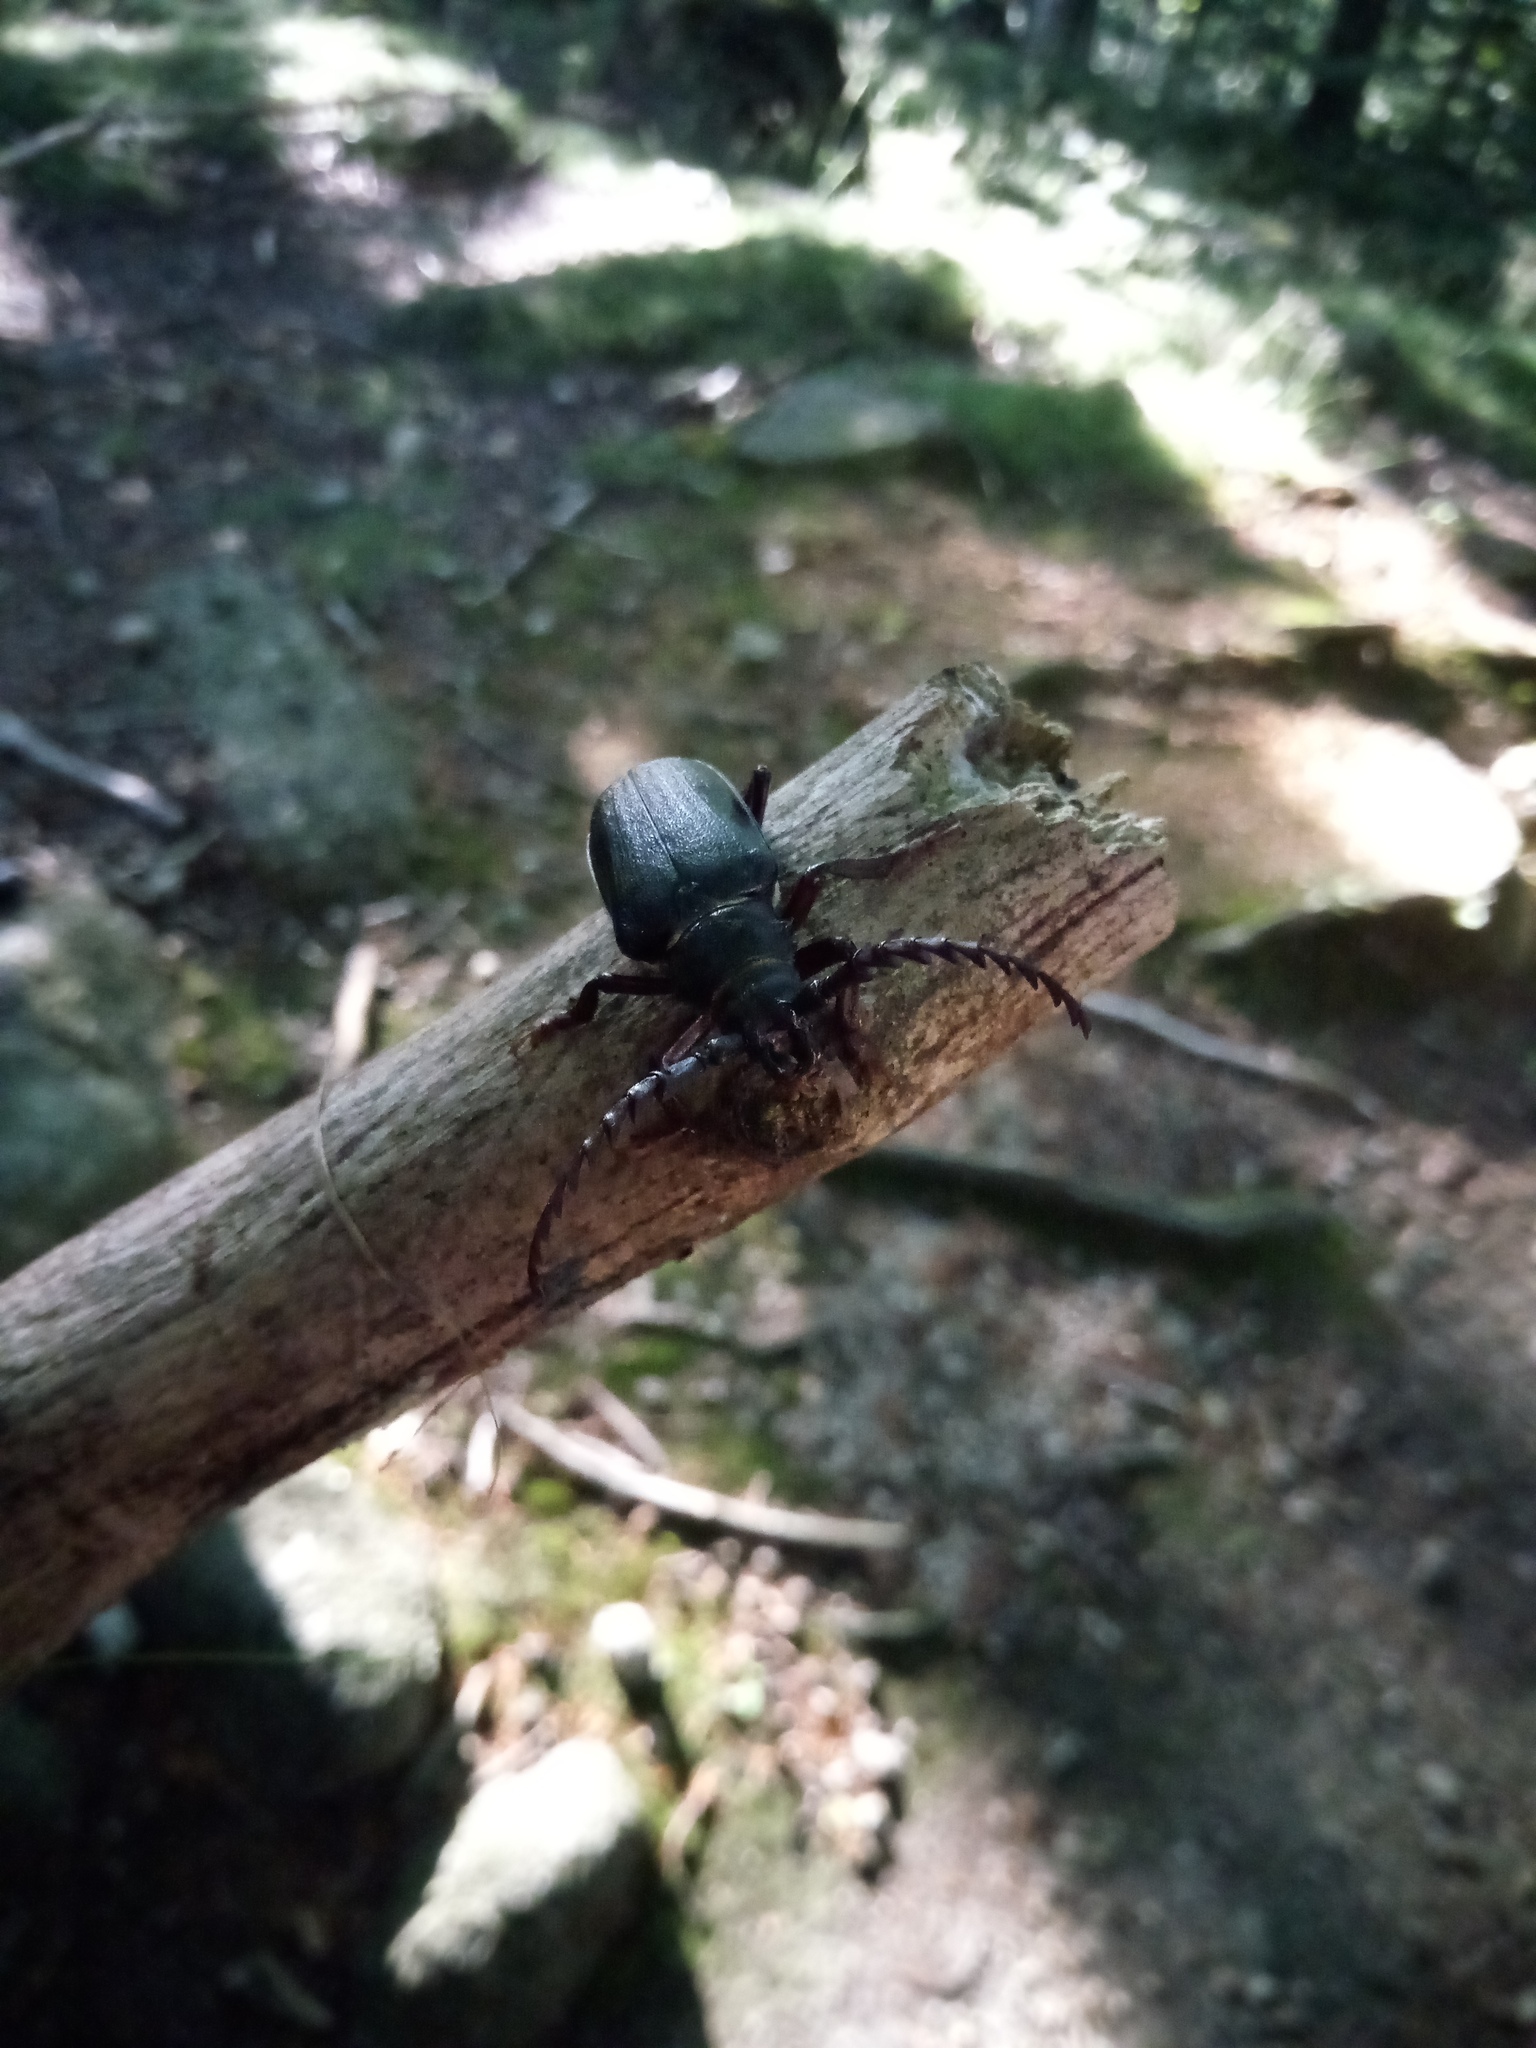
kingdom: Animalia
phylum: Arthropoda
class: Insecta
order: Coleoptera
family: Cerambycidae
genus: Prionus
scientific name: Prionus coriarius
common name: Tanner beetle
